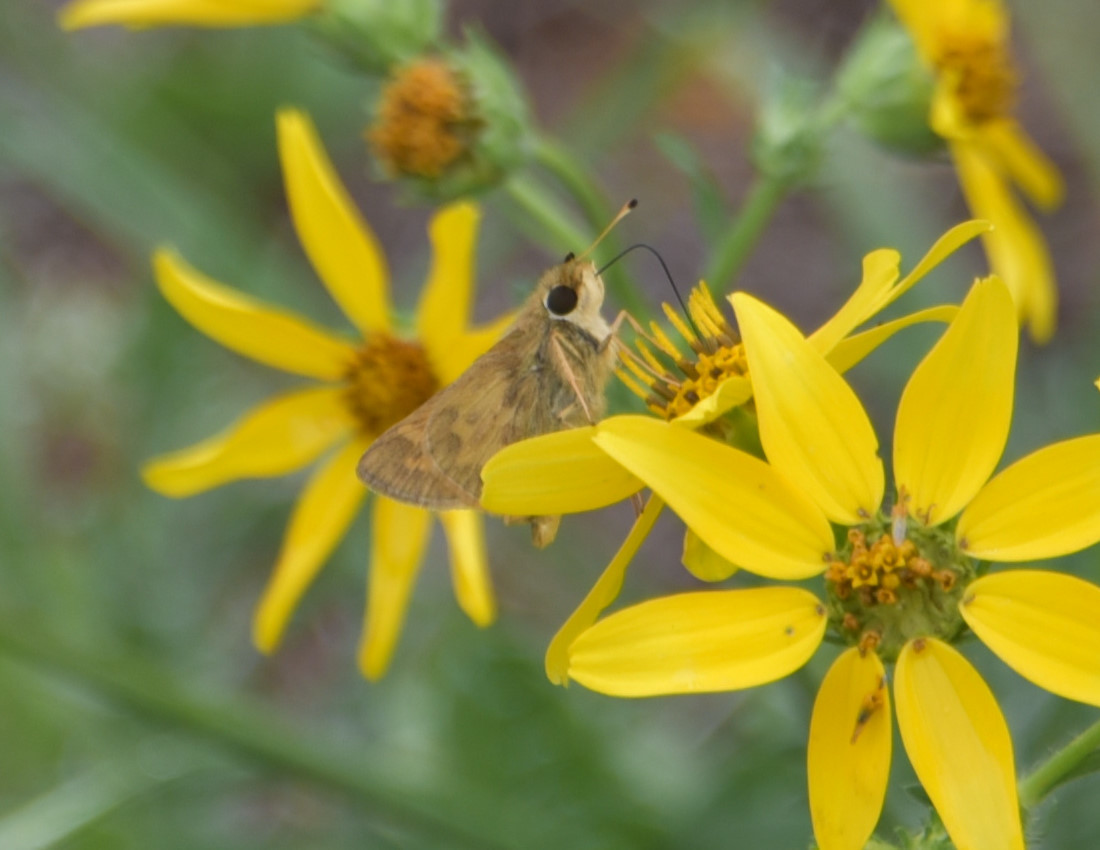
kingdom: Animalia
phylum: Arthropoda
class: Insecta
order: Lepidoptera
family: Hesperiidae
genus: Atalopedes
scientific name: Atalopedes
